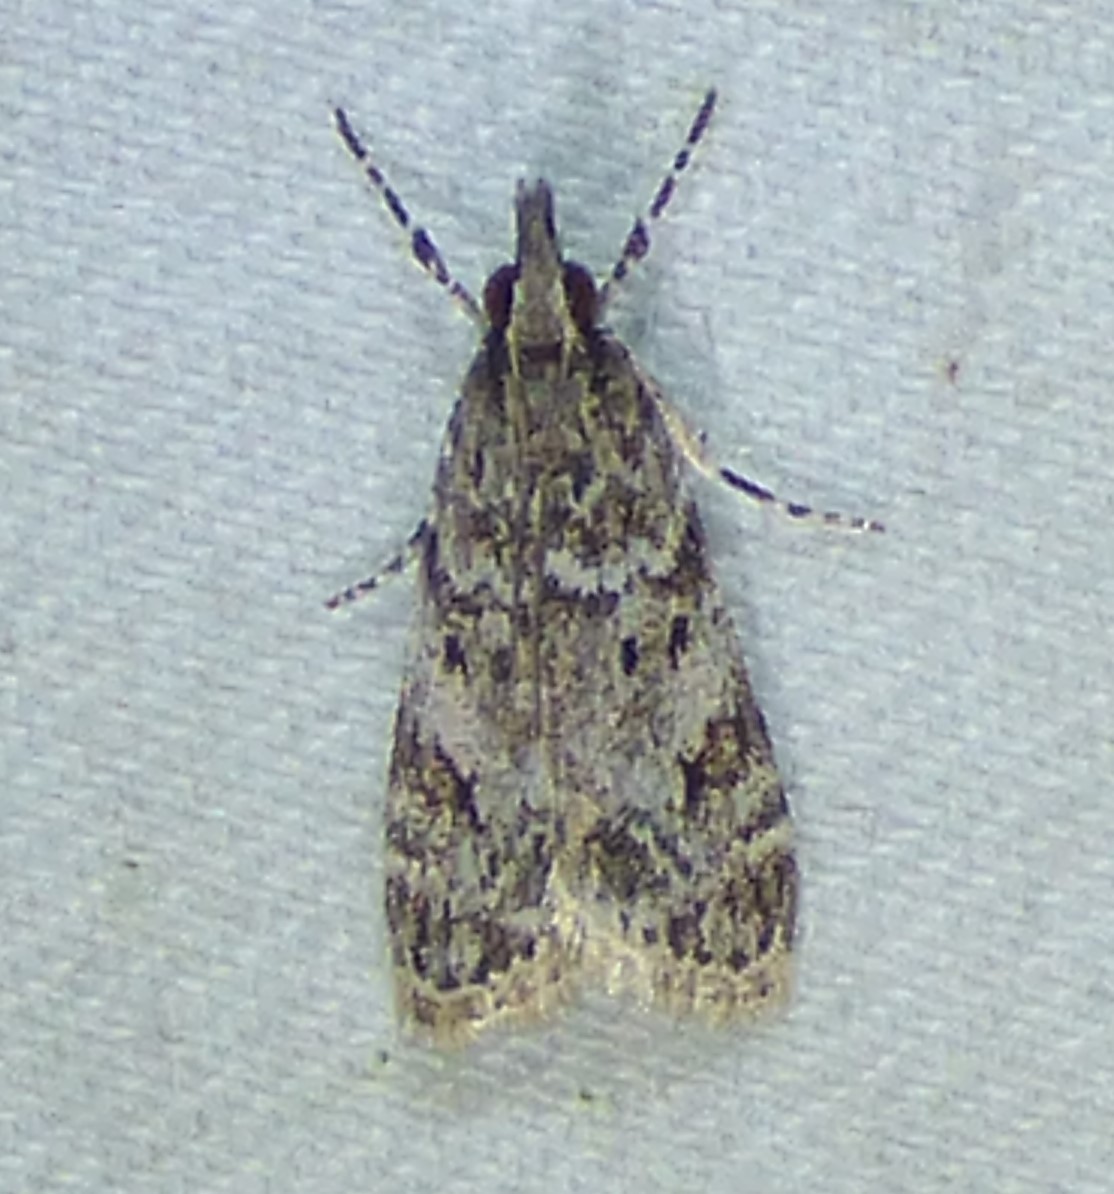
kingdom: Animalia
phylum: Arthropoda
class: Insecta
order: Lepidoptera
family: Crambidae
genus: Eudonia
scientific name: Eudonia heterosalis
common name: Mcdunnough's eudonia
